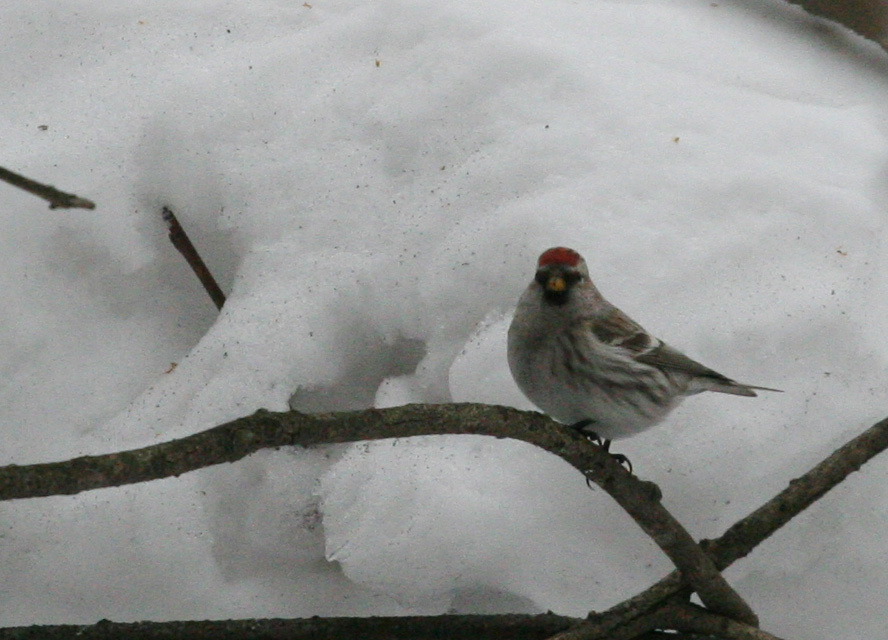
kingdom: Animalia
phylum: Chordata
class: Aves
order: Passeriformes
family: Fringillidae
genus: Acanthis
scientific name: Acanthis flammea
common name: Common redpoll
